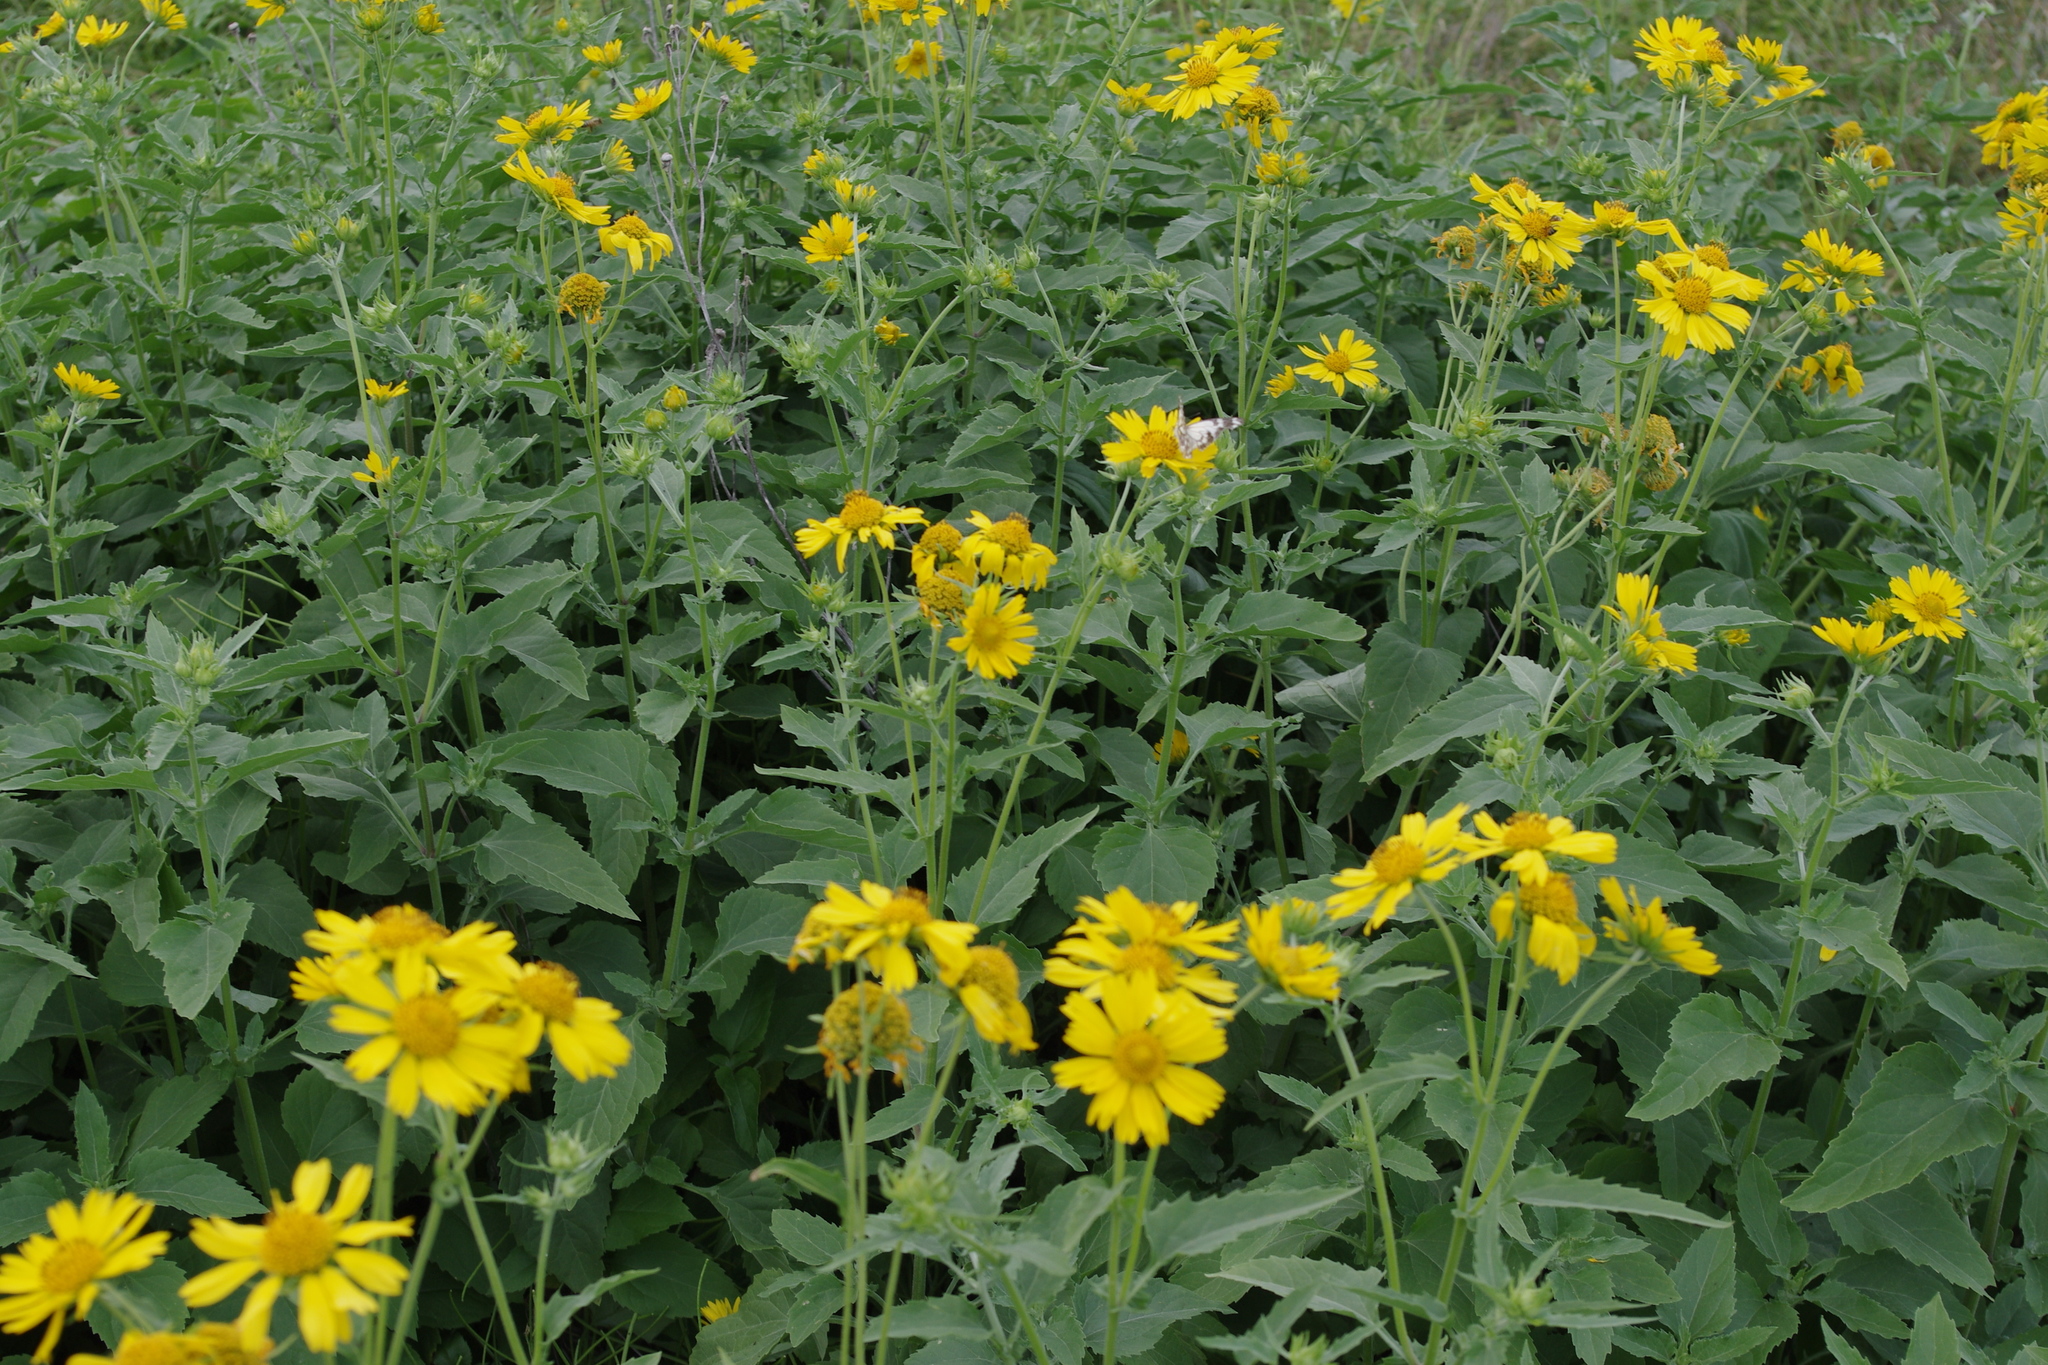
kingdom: Plantae
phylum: Tracheophyta
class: Magnoliopsida
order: Asterales
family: Asteraceae
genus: Verbesina
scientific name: Verbesina encelioides
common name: Golden crownbeard
